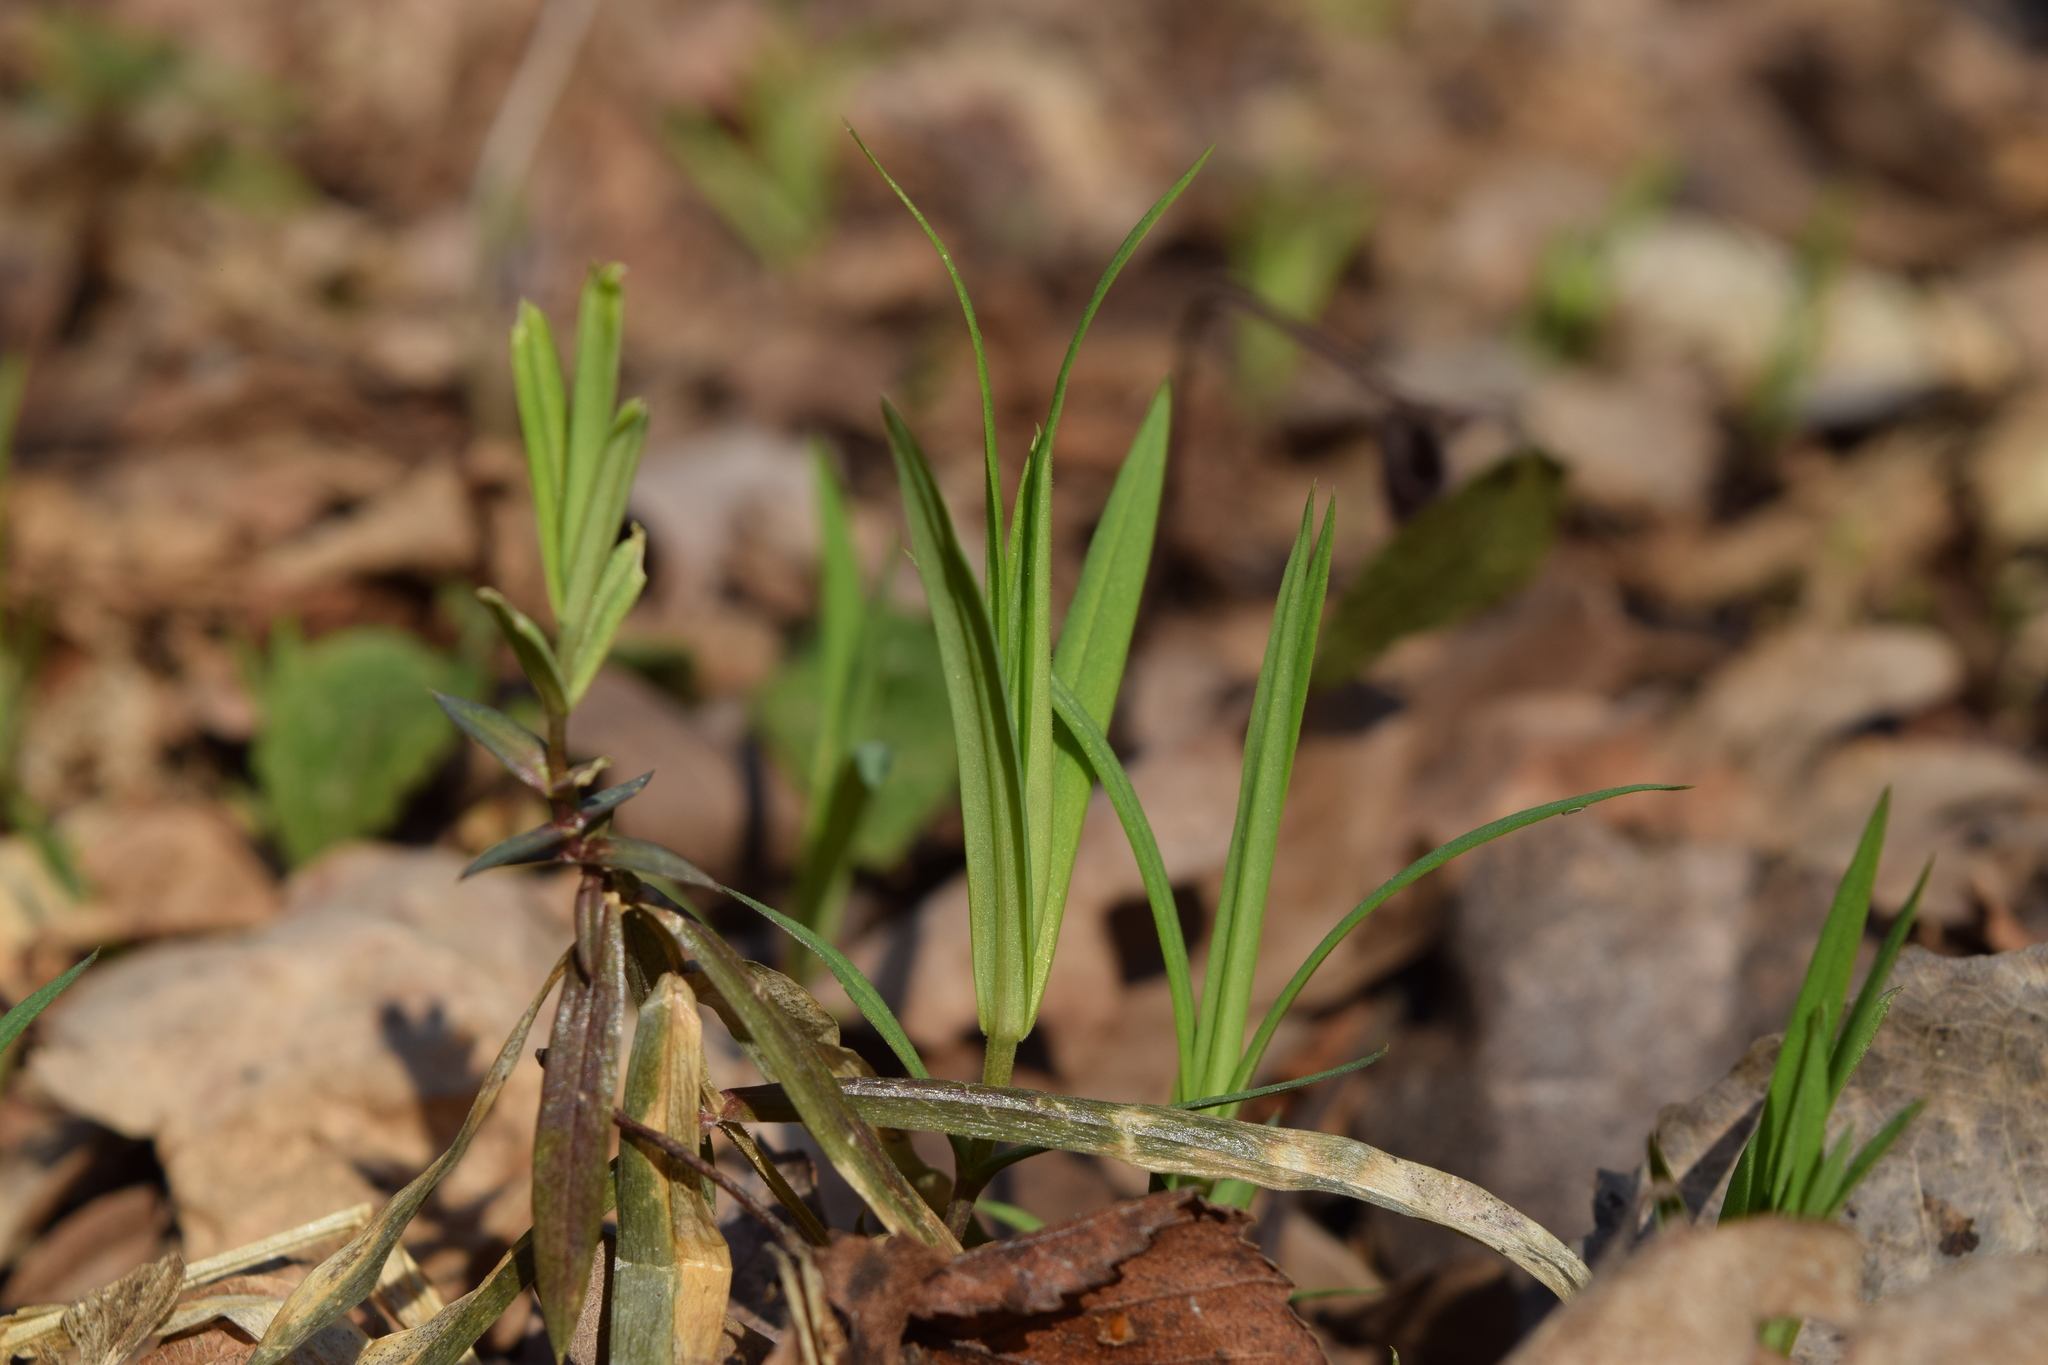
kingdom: Plantae
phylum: Tracheophyta
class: Magnoliopsida
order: Caryophyllales
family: Caryophyllaceae
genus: Rabelera
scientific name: Rabelera holostea
